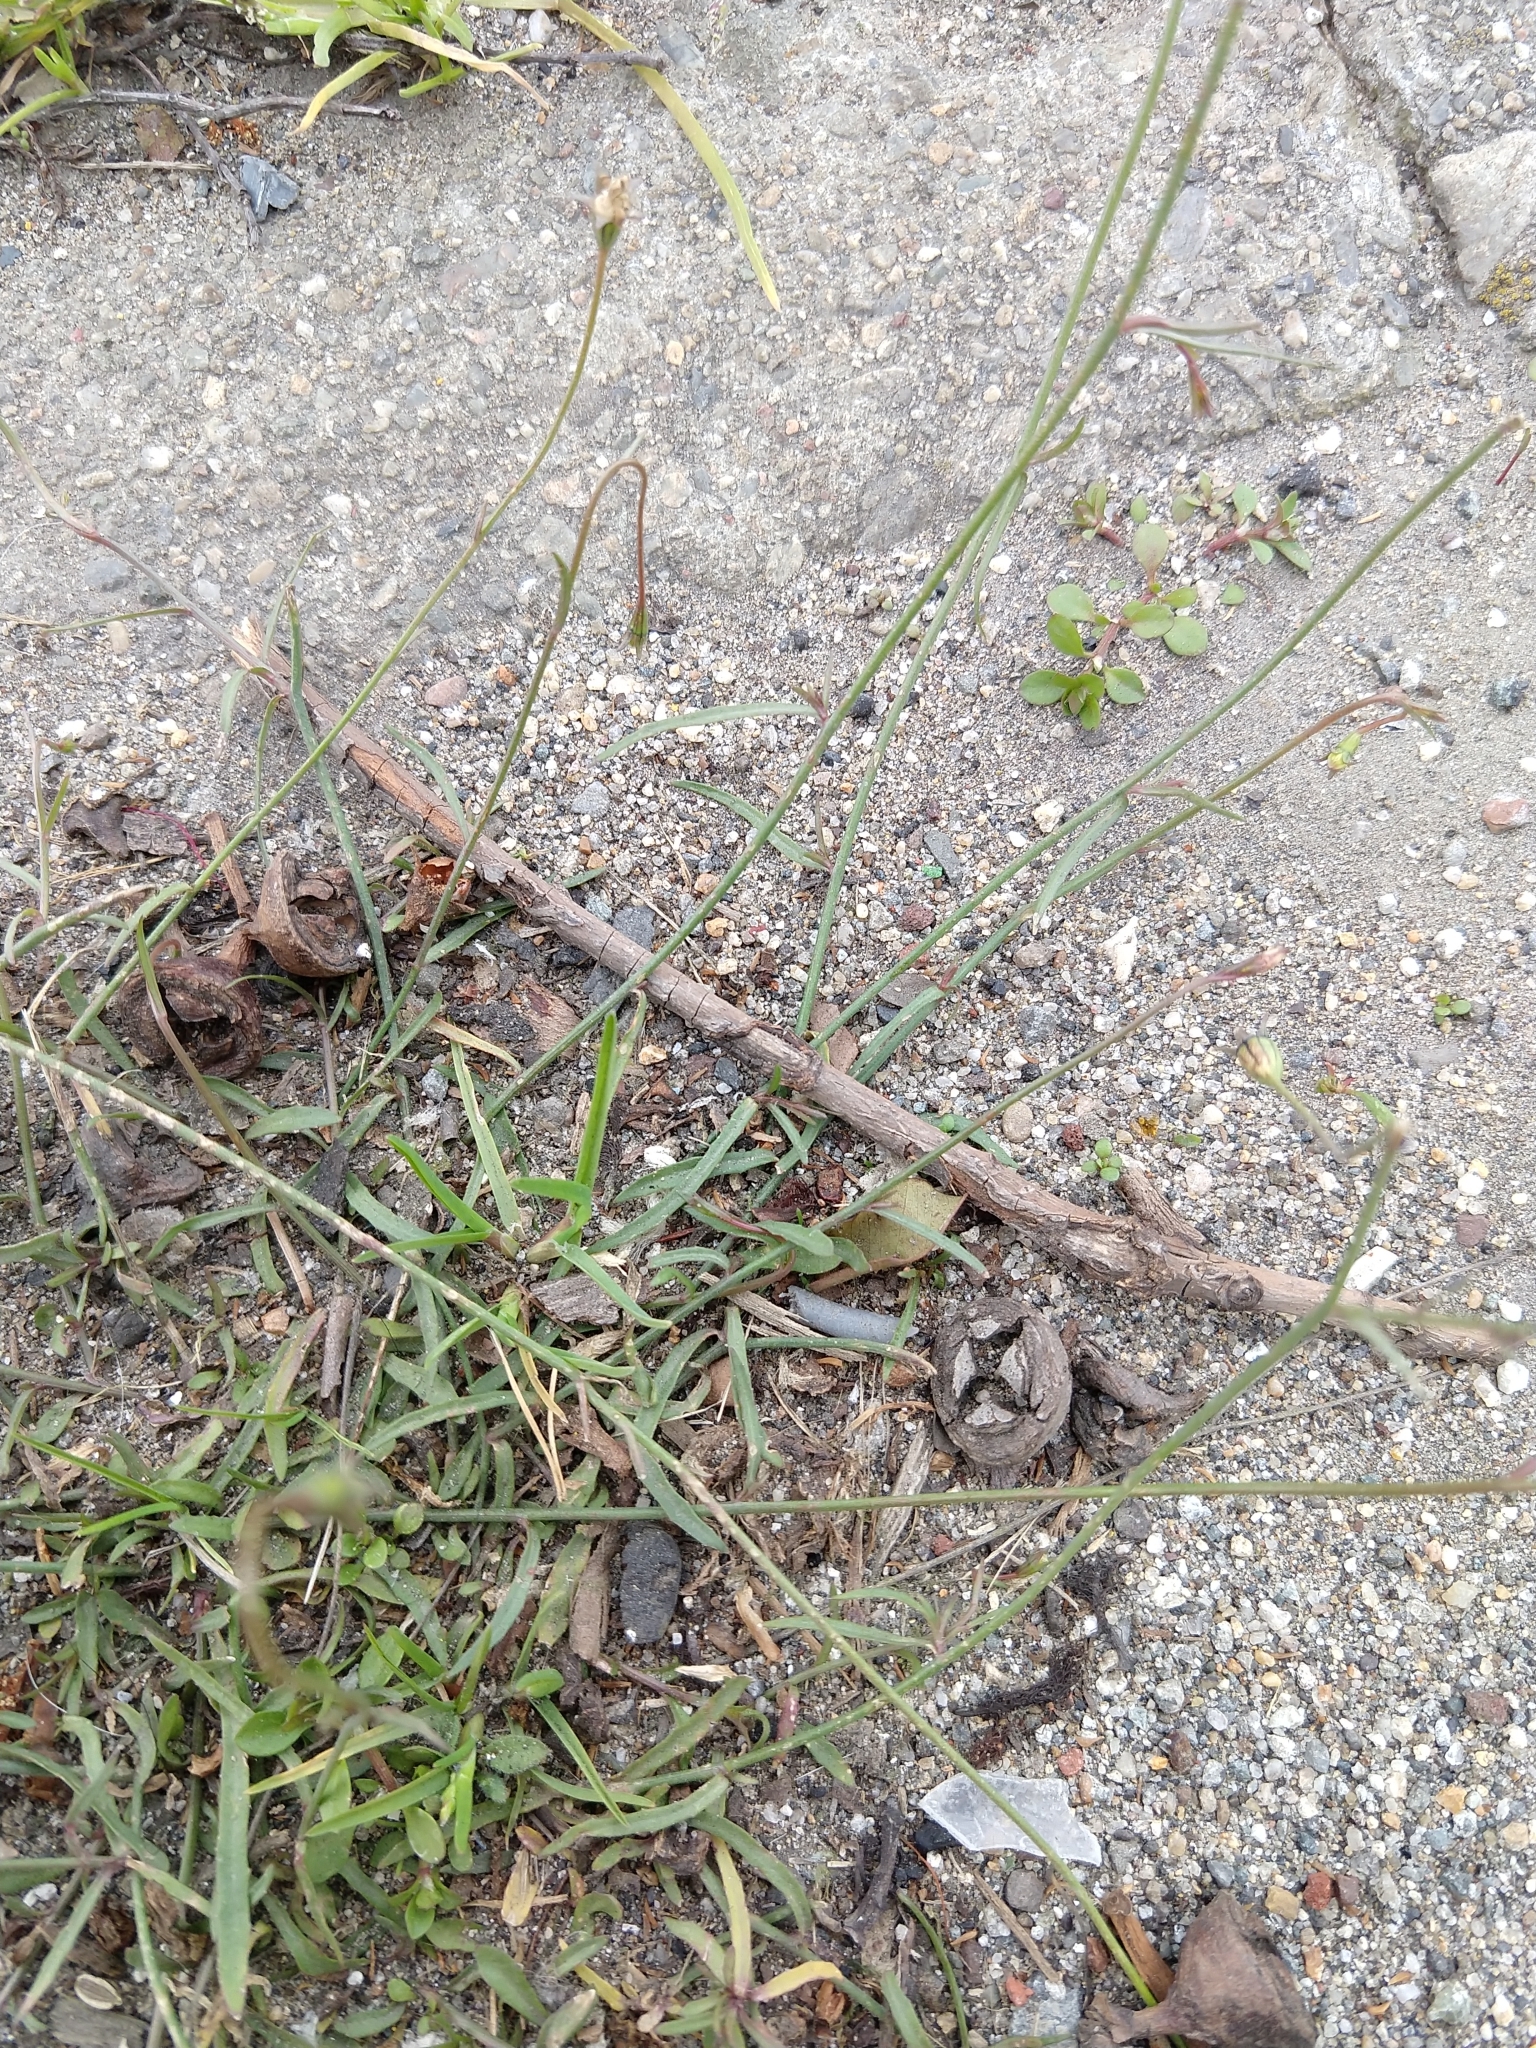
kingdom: Plantae
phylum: Tracheophyta
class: Magnoliopsida
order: Asterales
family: Campanulaceae
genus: Wahlenbergia
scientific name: Wahlenbergia marginata
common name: Southern rockbell
